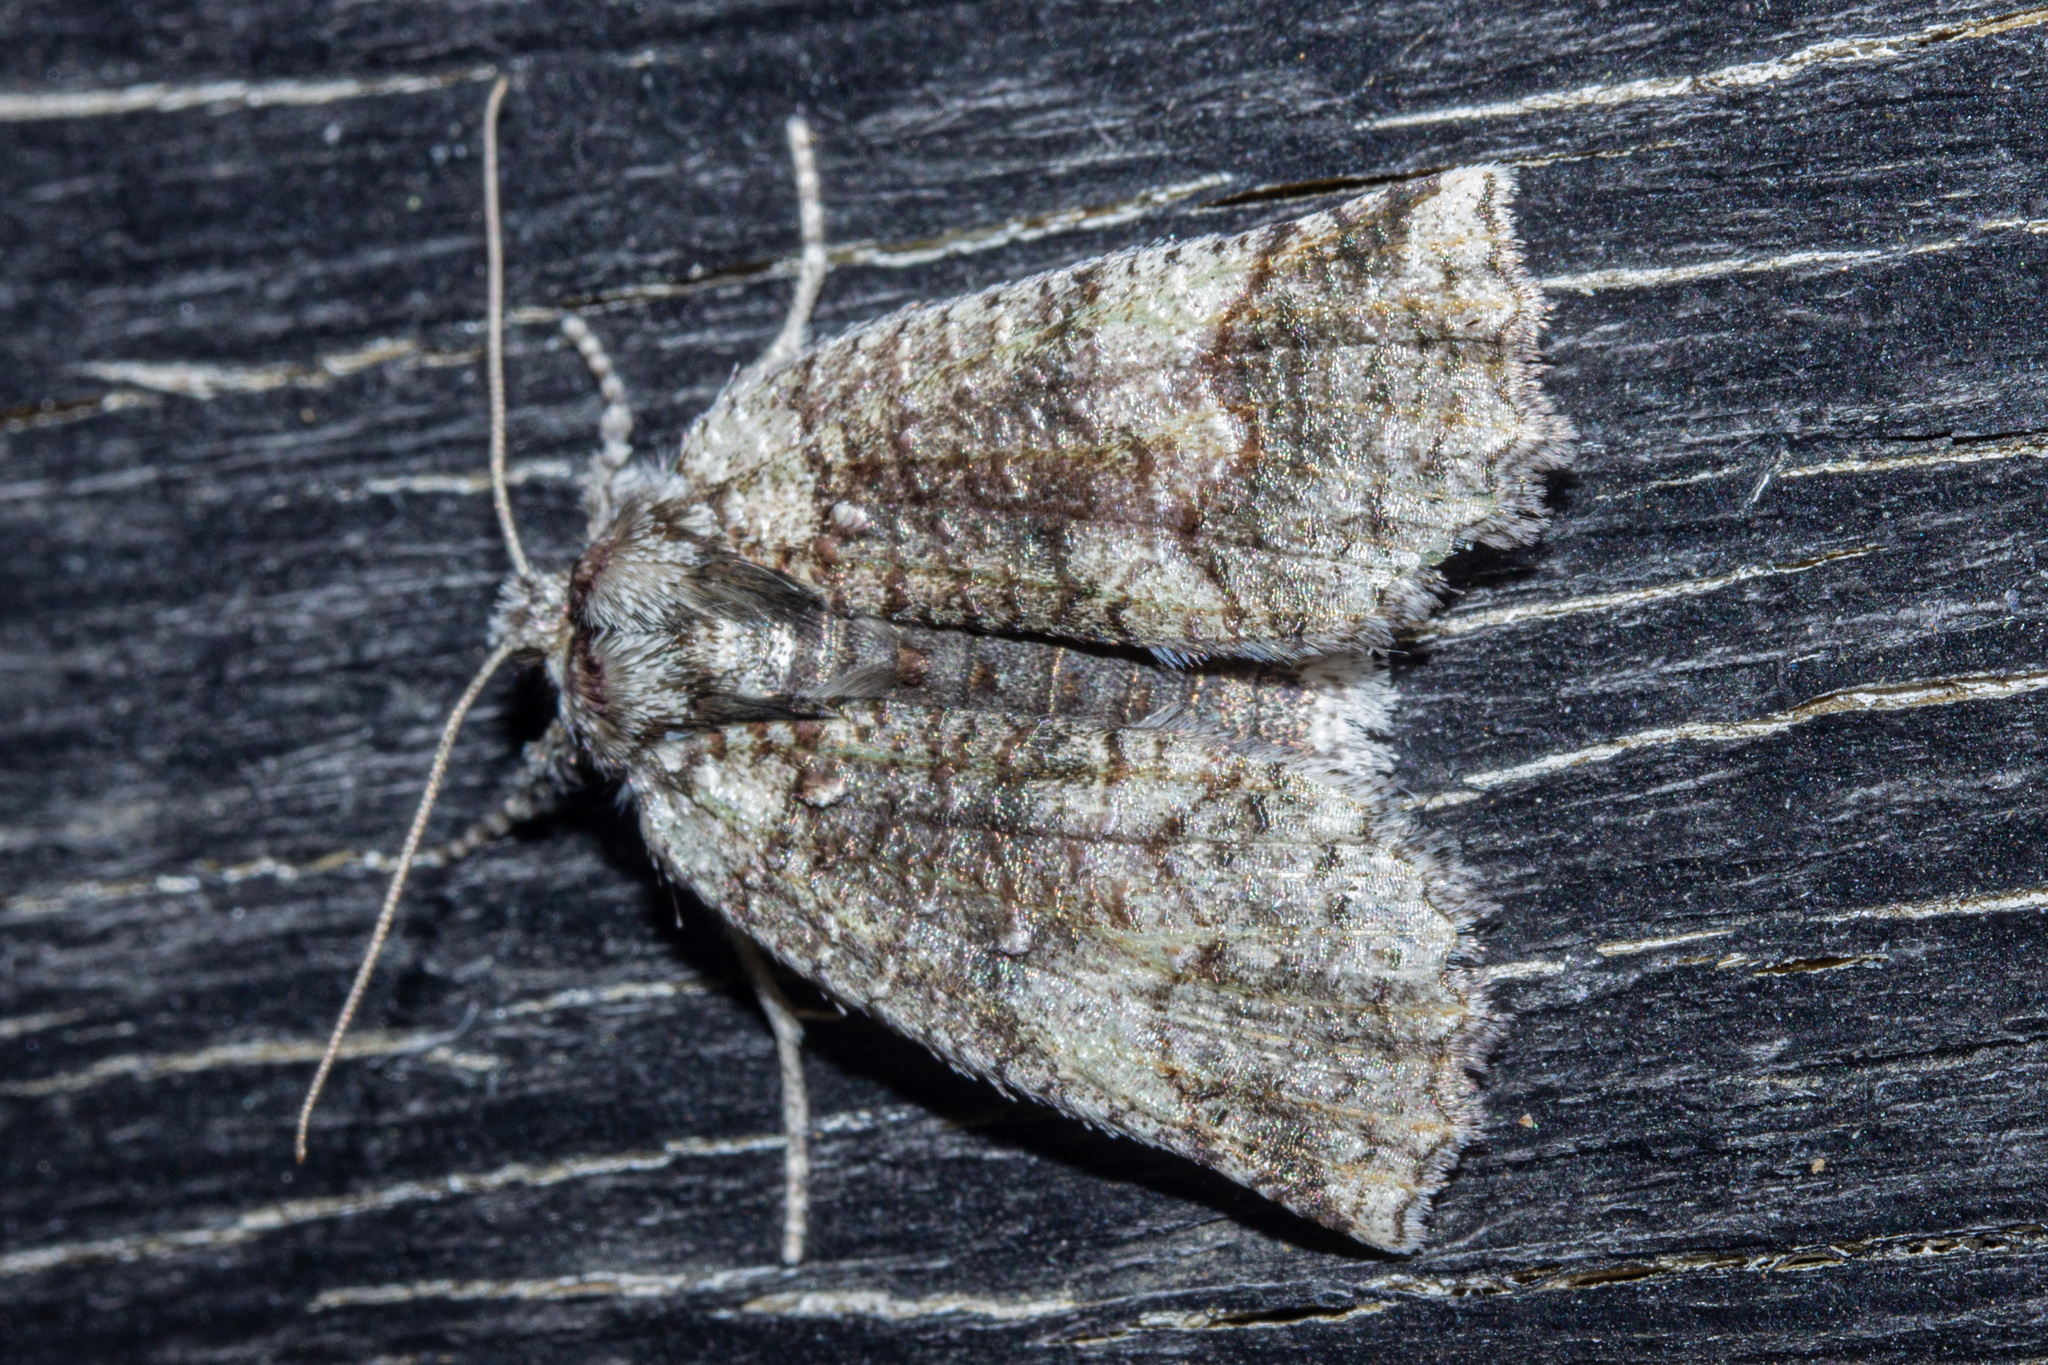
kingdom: Animalia
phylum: Arthropoda
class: Insecta
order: Lepidoptera
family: Geometridae
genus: Declana
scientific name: Declana floccosa
